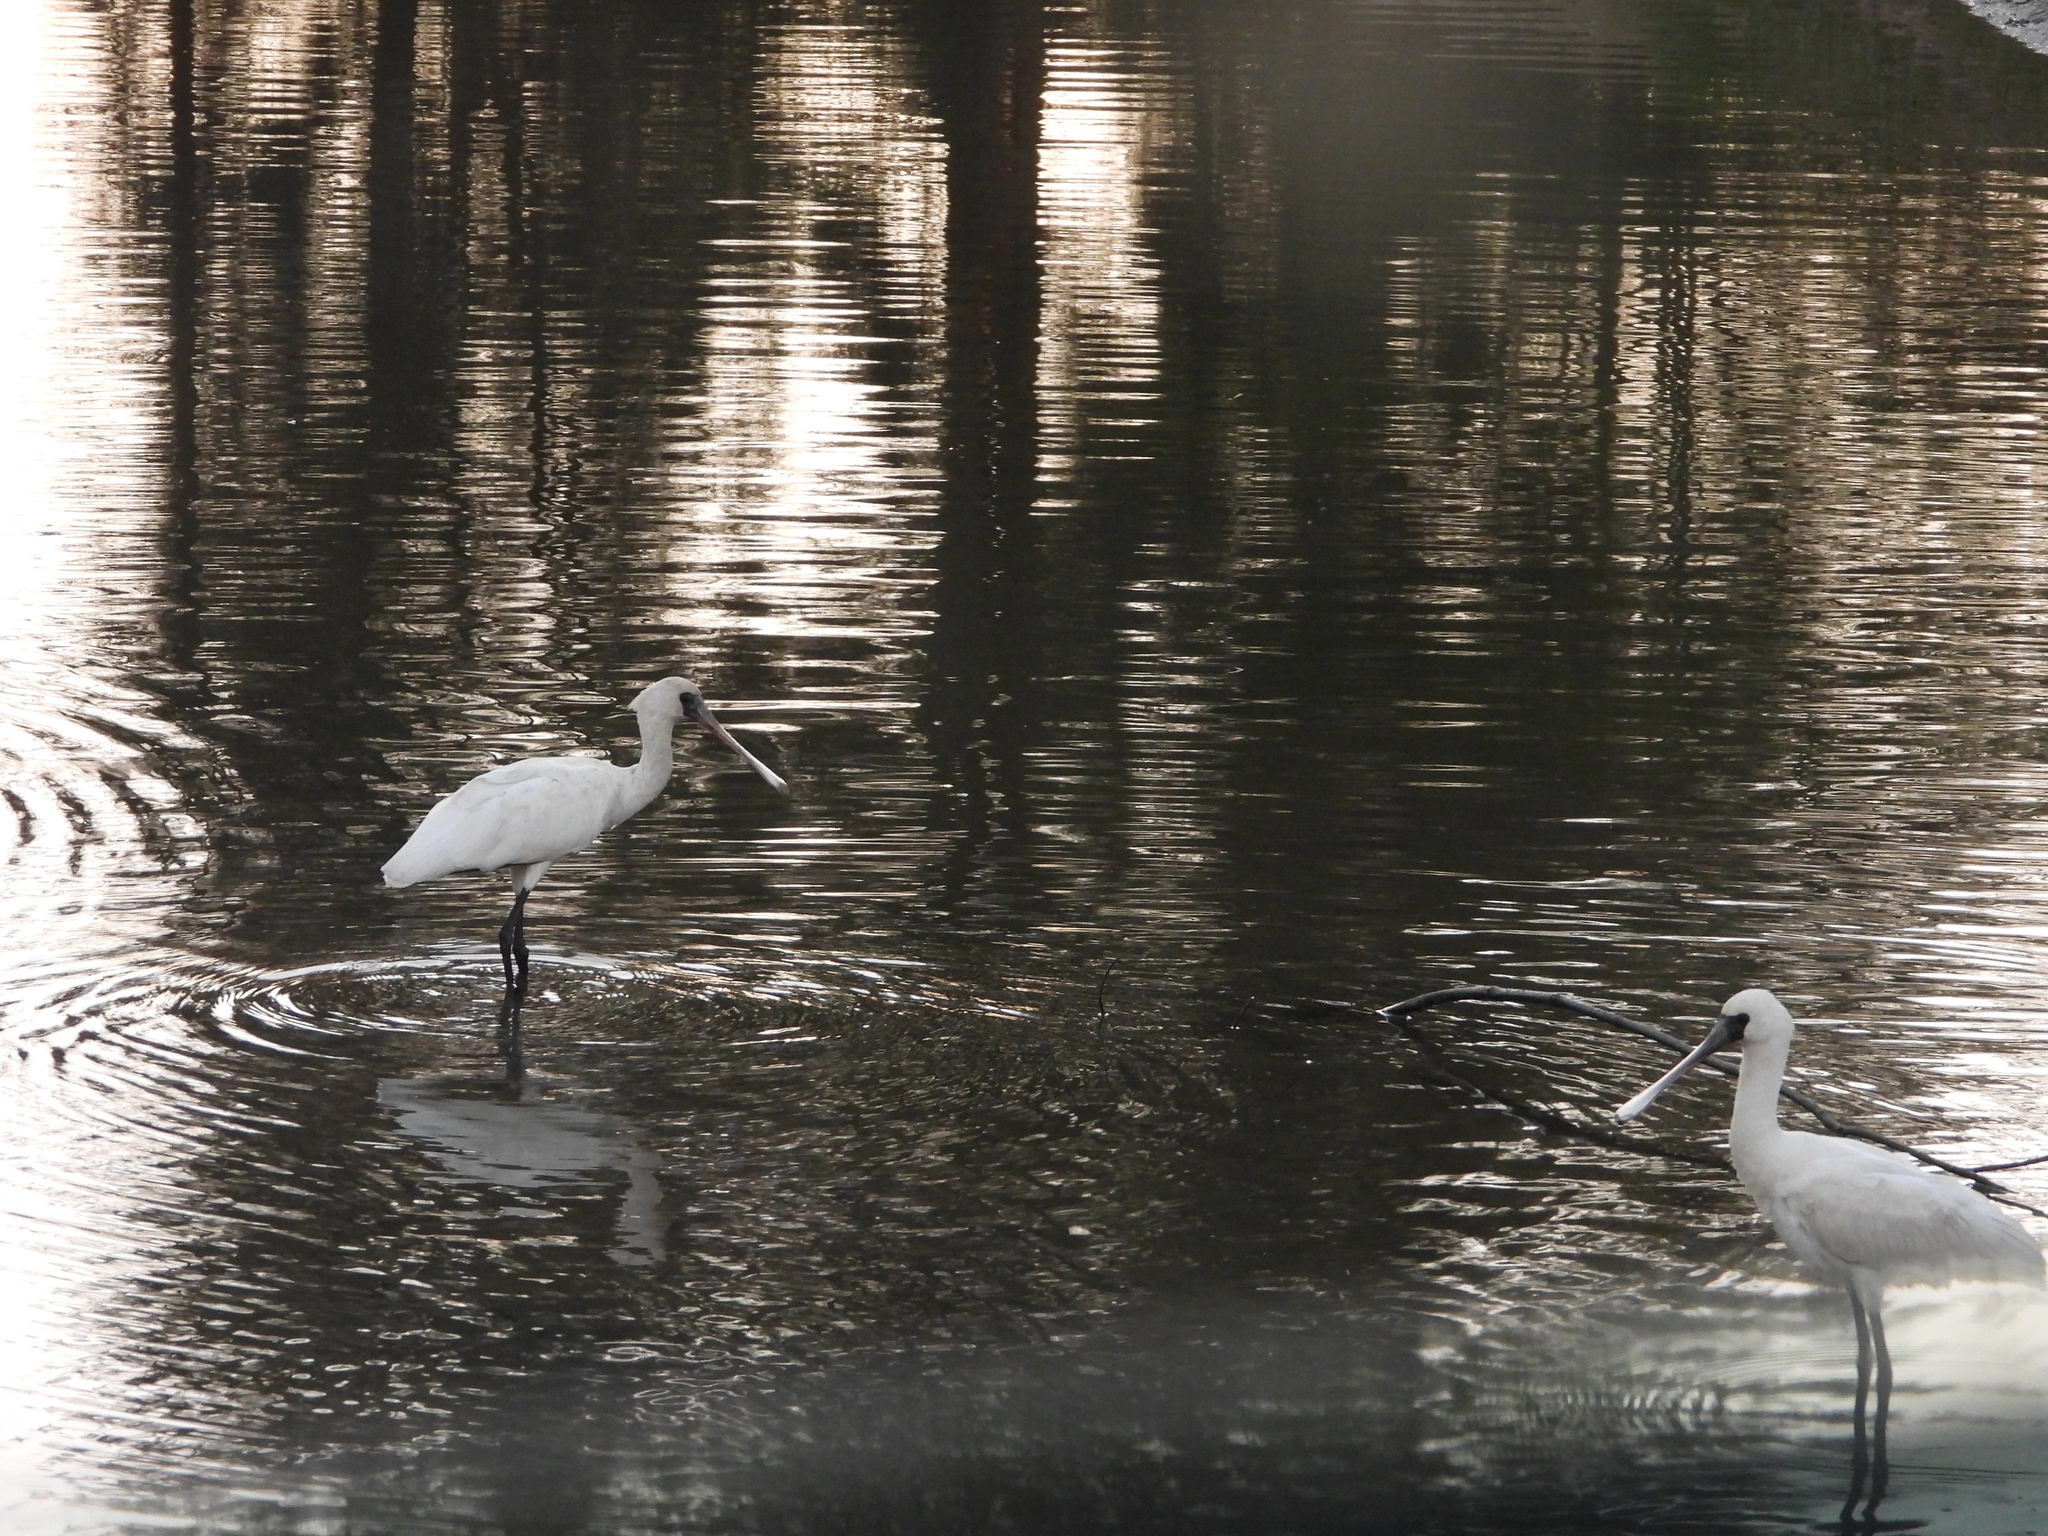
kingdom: Animalia
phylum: Chordata
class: Aves
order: Pelecaniformes
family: Threskiornithidae
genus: Platalea
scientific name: Platalea minor
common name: Black-faced spoonbill
